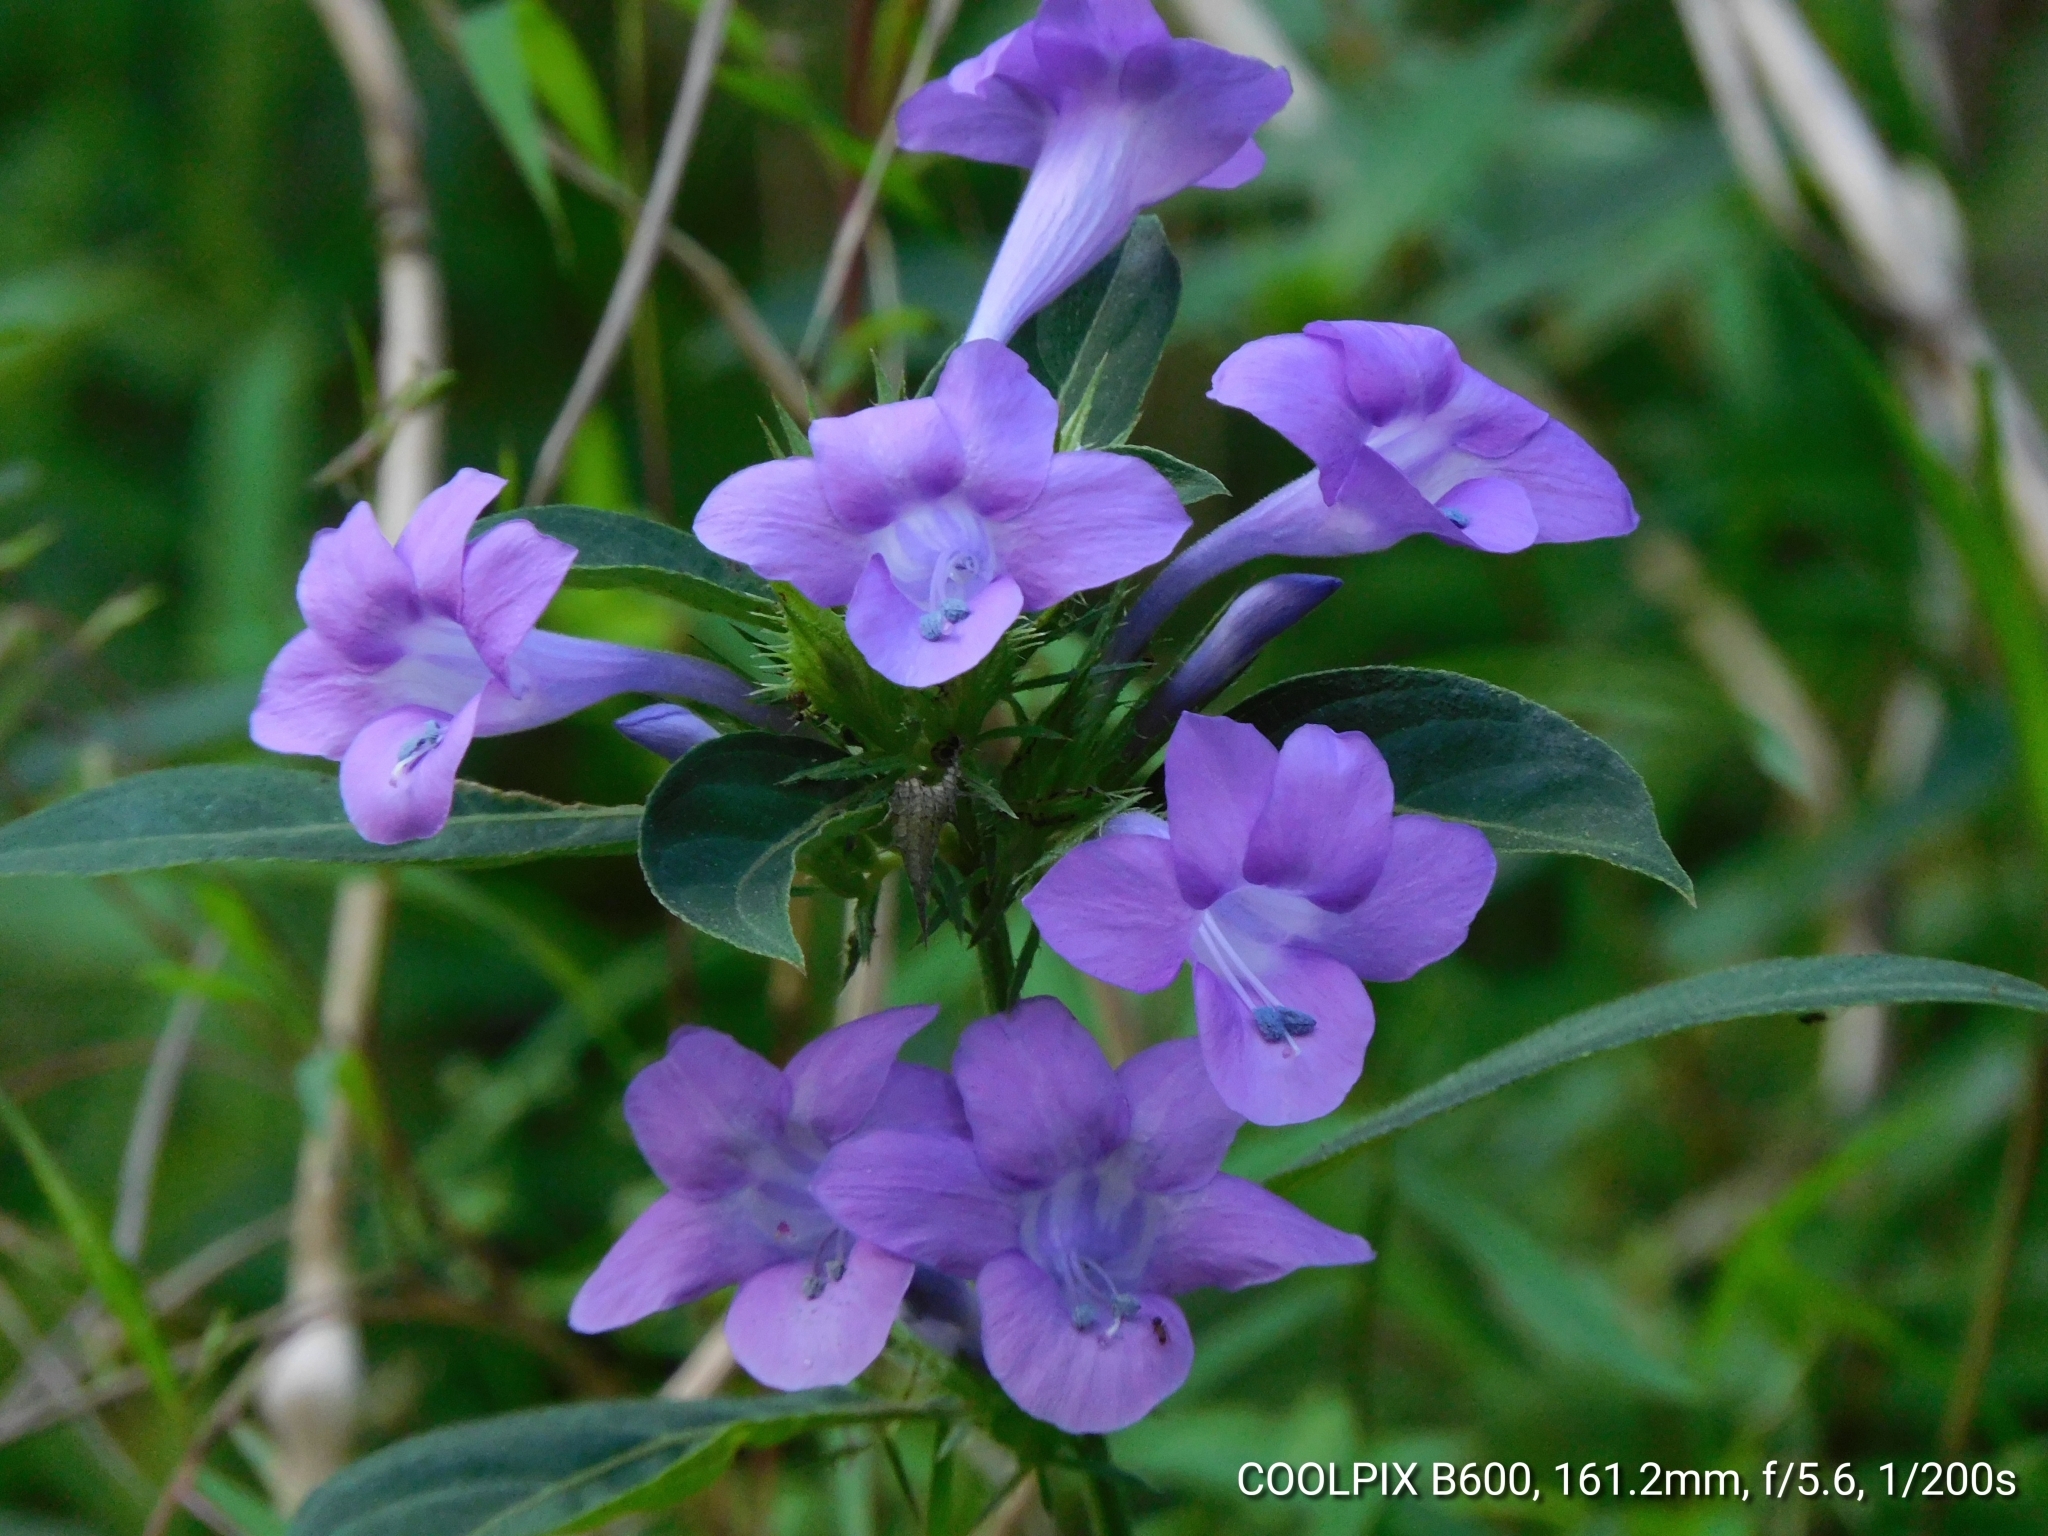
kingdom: Plantae
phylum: Tracheophyta
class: Magnoliopsida
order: Lamiales
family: Acanthaceae
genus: Barleria
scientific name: Barleria cristata
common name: Crested philippine violet
